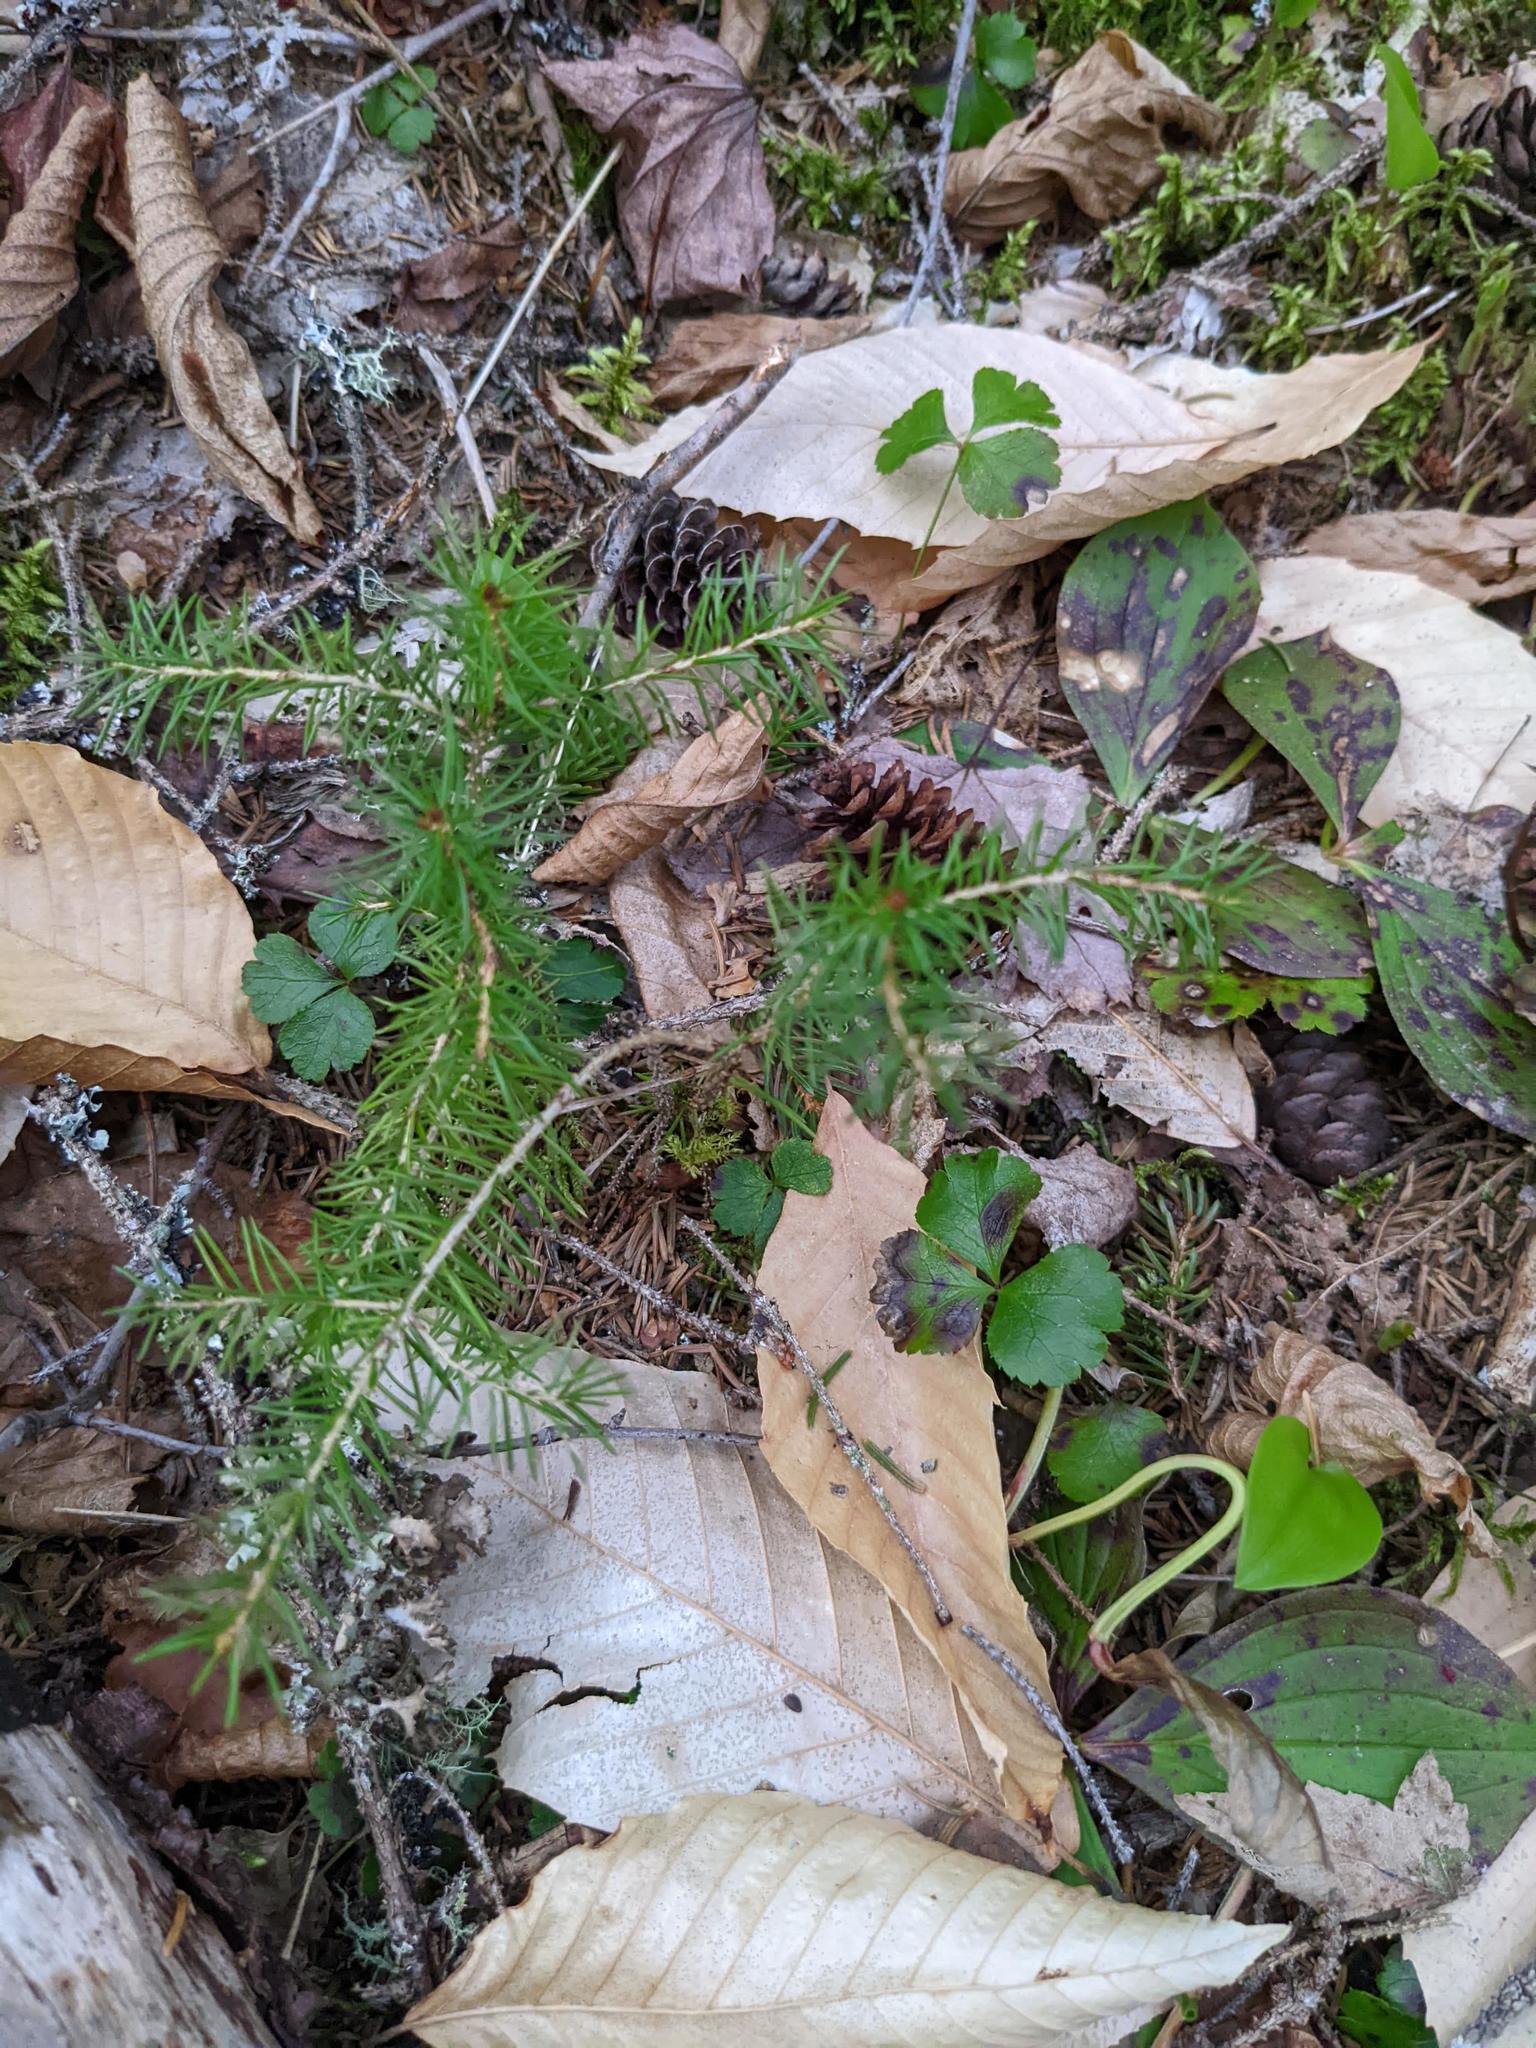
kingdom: Plantae
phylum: Tracheophyta
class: Magnoliopsida
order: Fagales
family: Fagaceae
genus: Fagus
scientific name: Fagus grandifolia
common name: American beech
